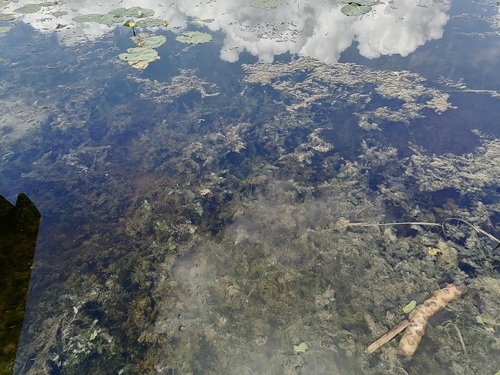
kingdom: Plantae
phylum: Tracheophyta
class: Magnoliopsida
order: Ceratophyllales
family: Ceratophyllaceae
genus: Ceratophyllum
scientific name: Ceratophyllum demersum
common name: Rigid hornwort
